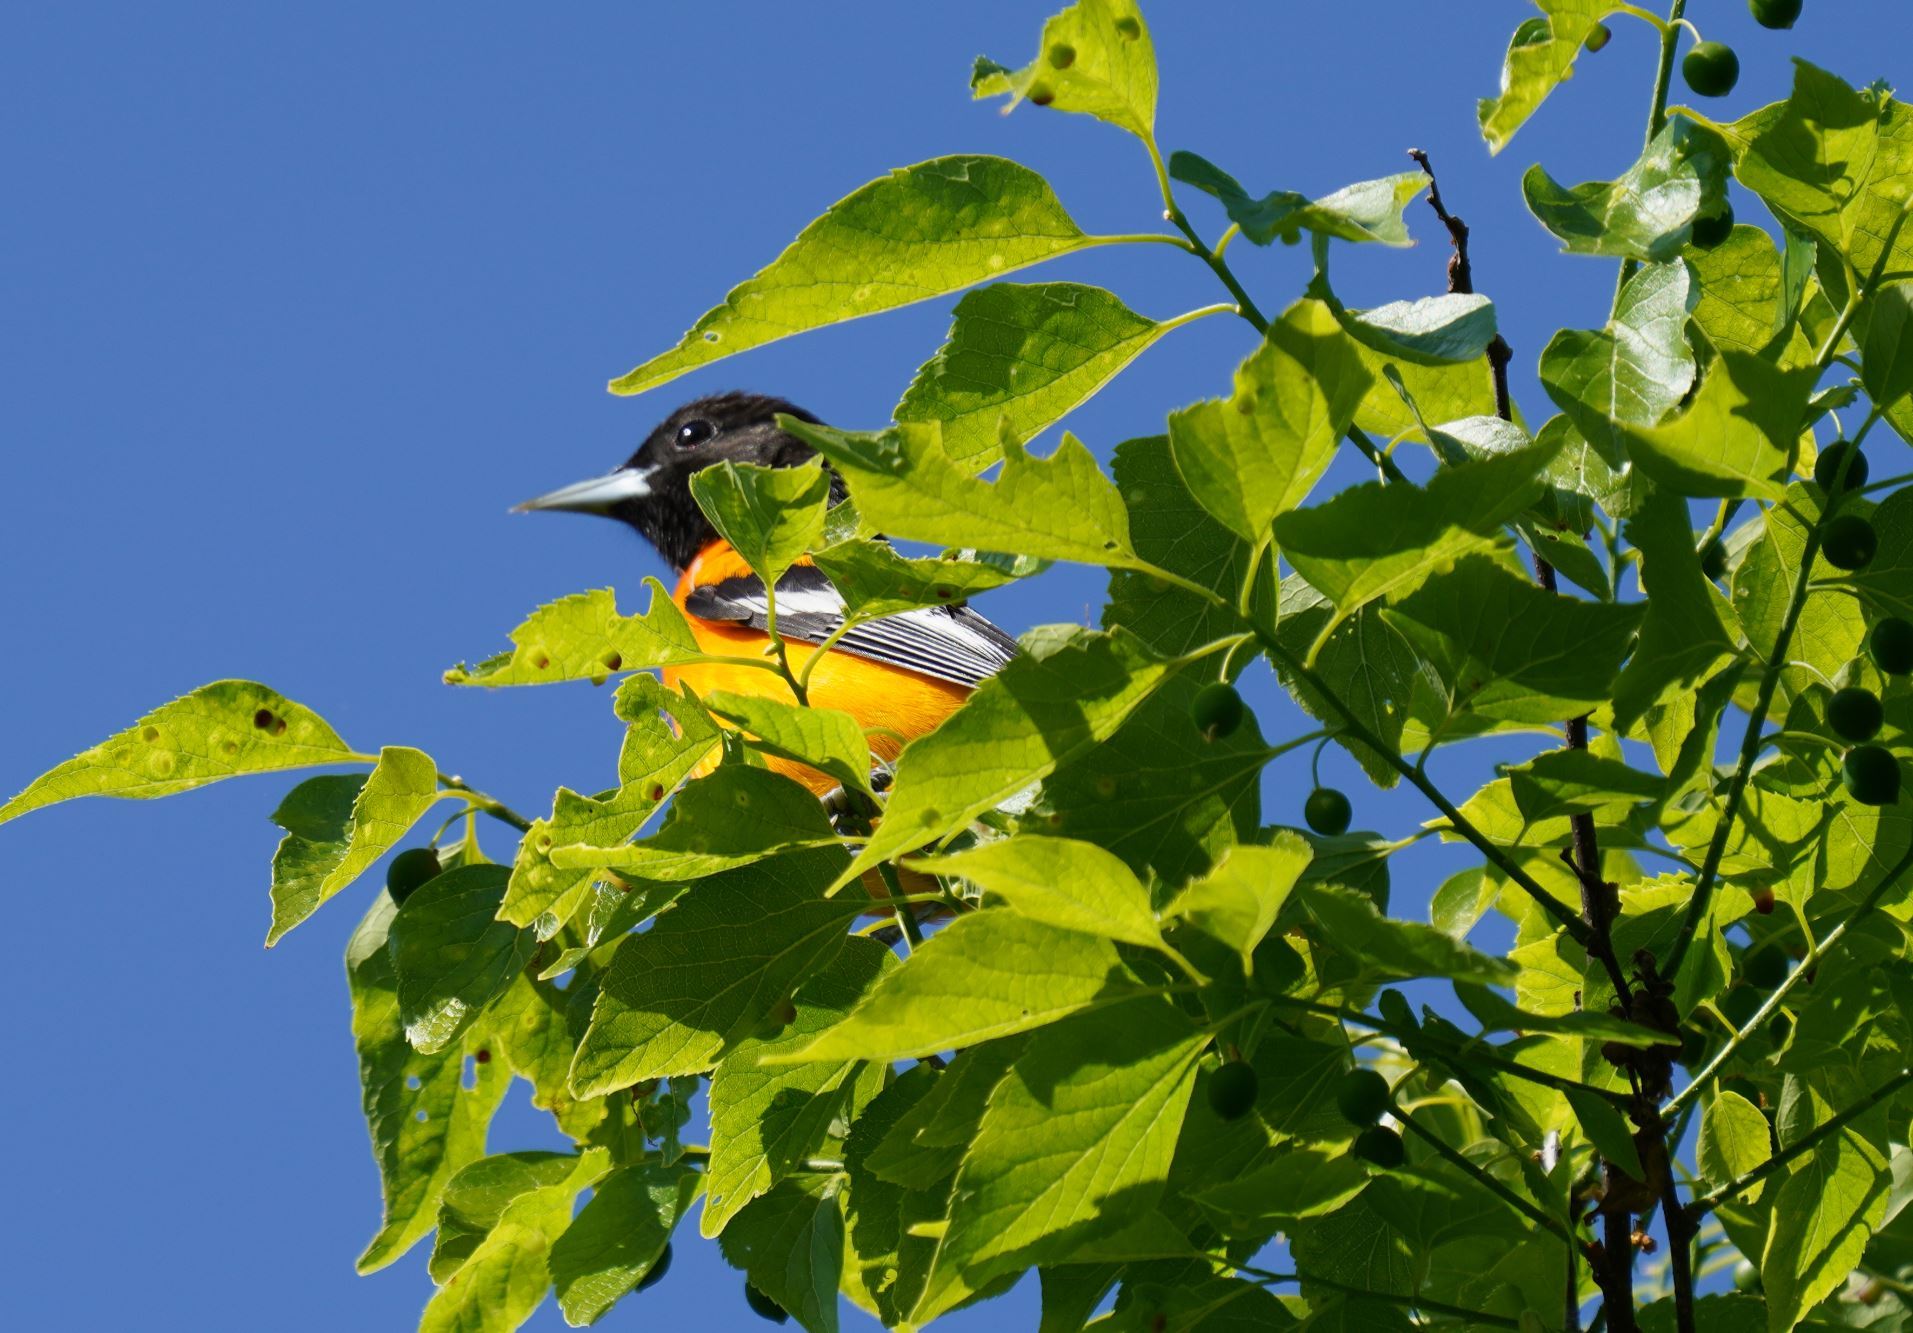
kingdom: Animalia
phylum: Chordata
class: Aves
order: Passeriformes
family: Icteridae
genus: Icterus
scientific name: Icterus galbula
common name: Baltimore oriole
